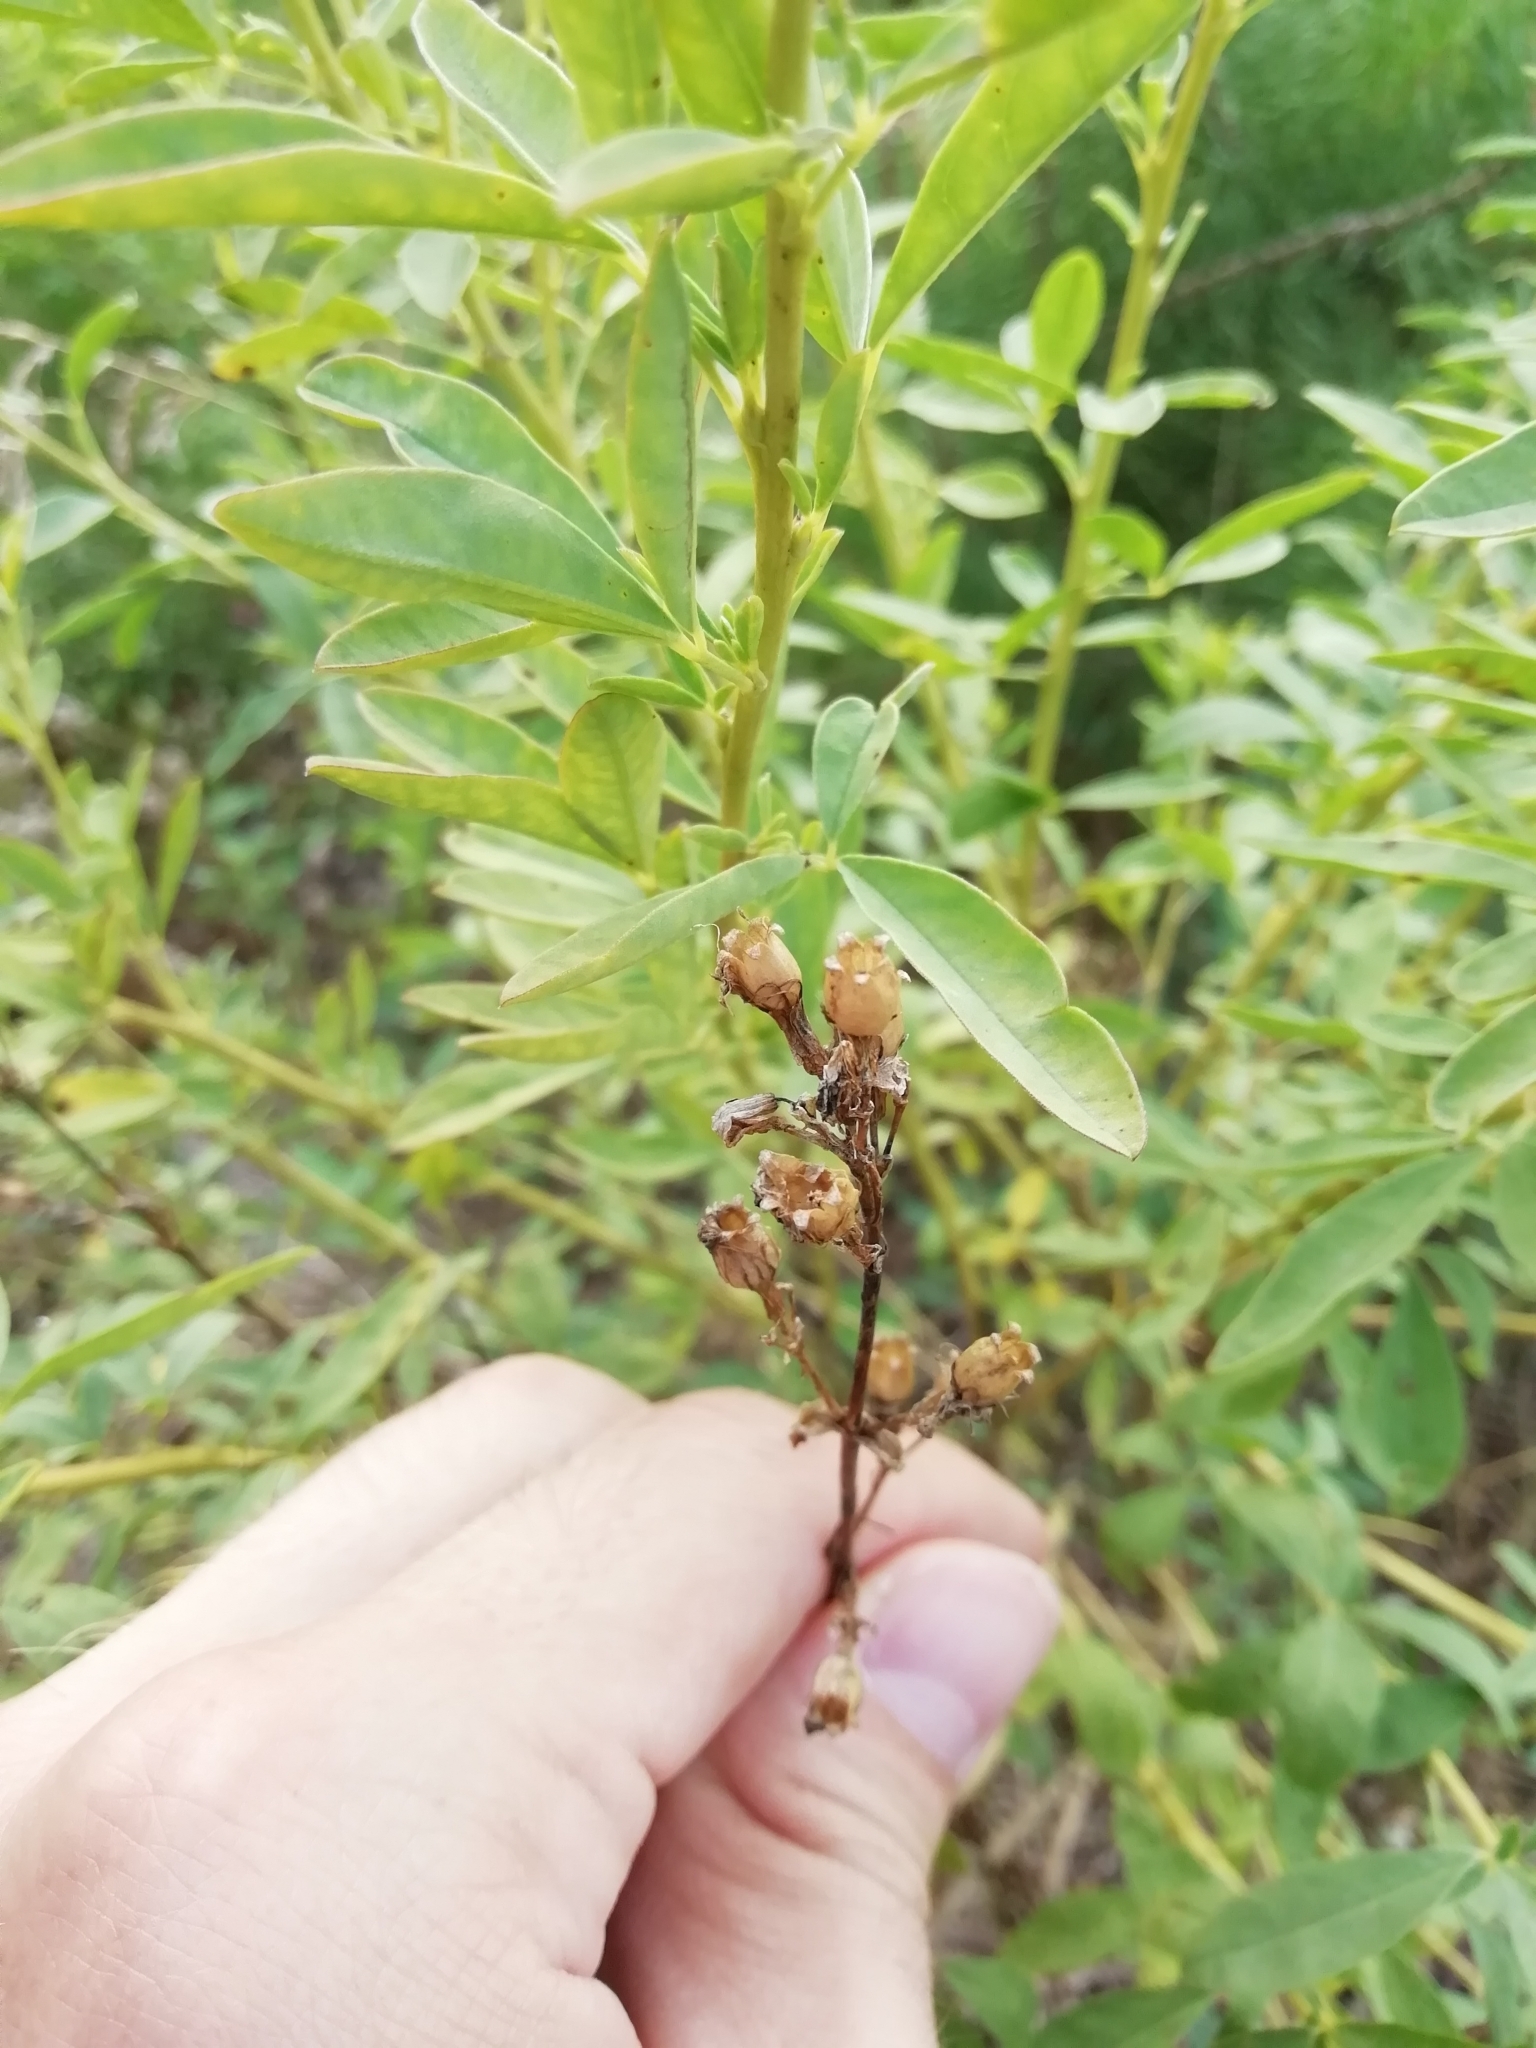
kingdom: Plantae
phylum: Tracheophyta
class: Magnoliopsida
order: Fabales
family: Fabaceae
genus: Chamaecytisus
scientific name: Chamaecytisus ruthenicus
